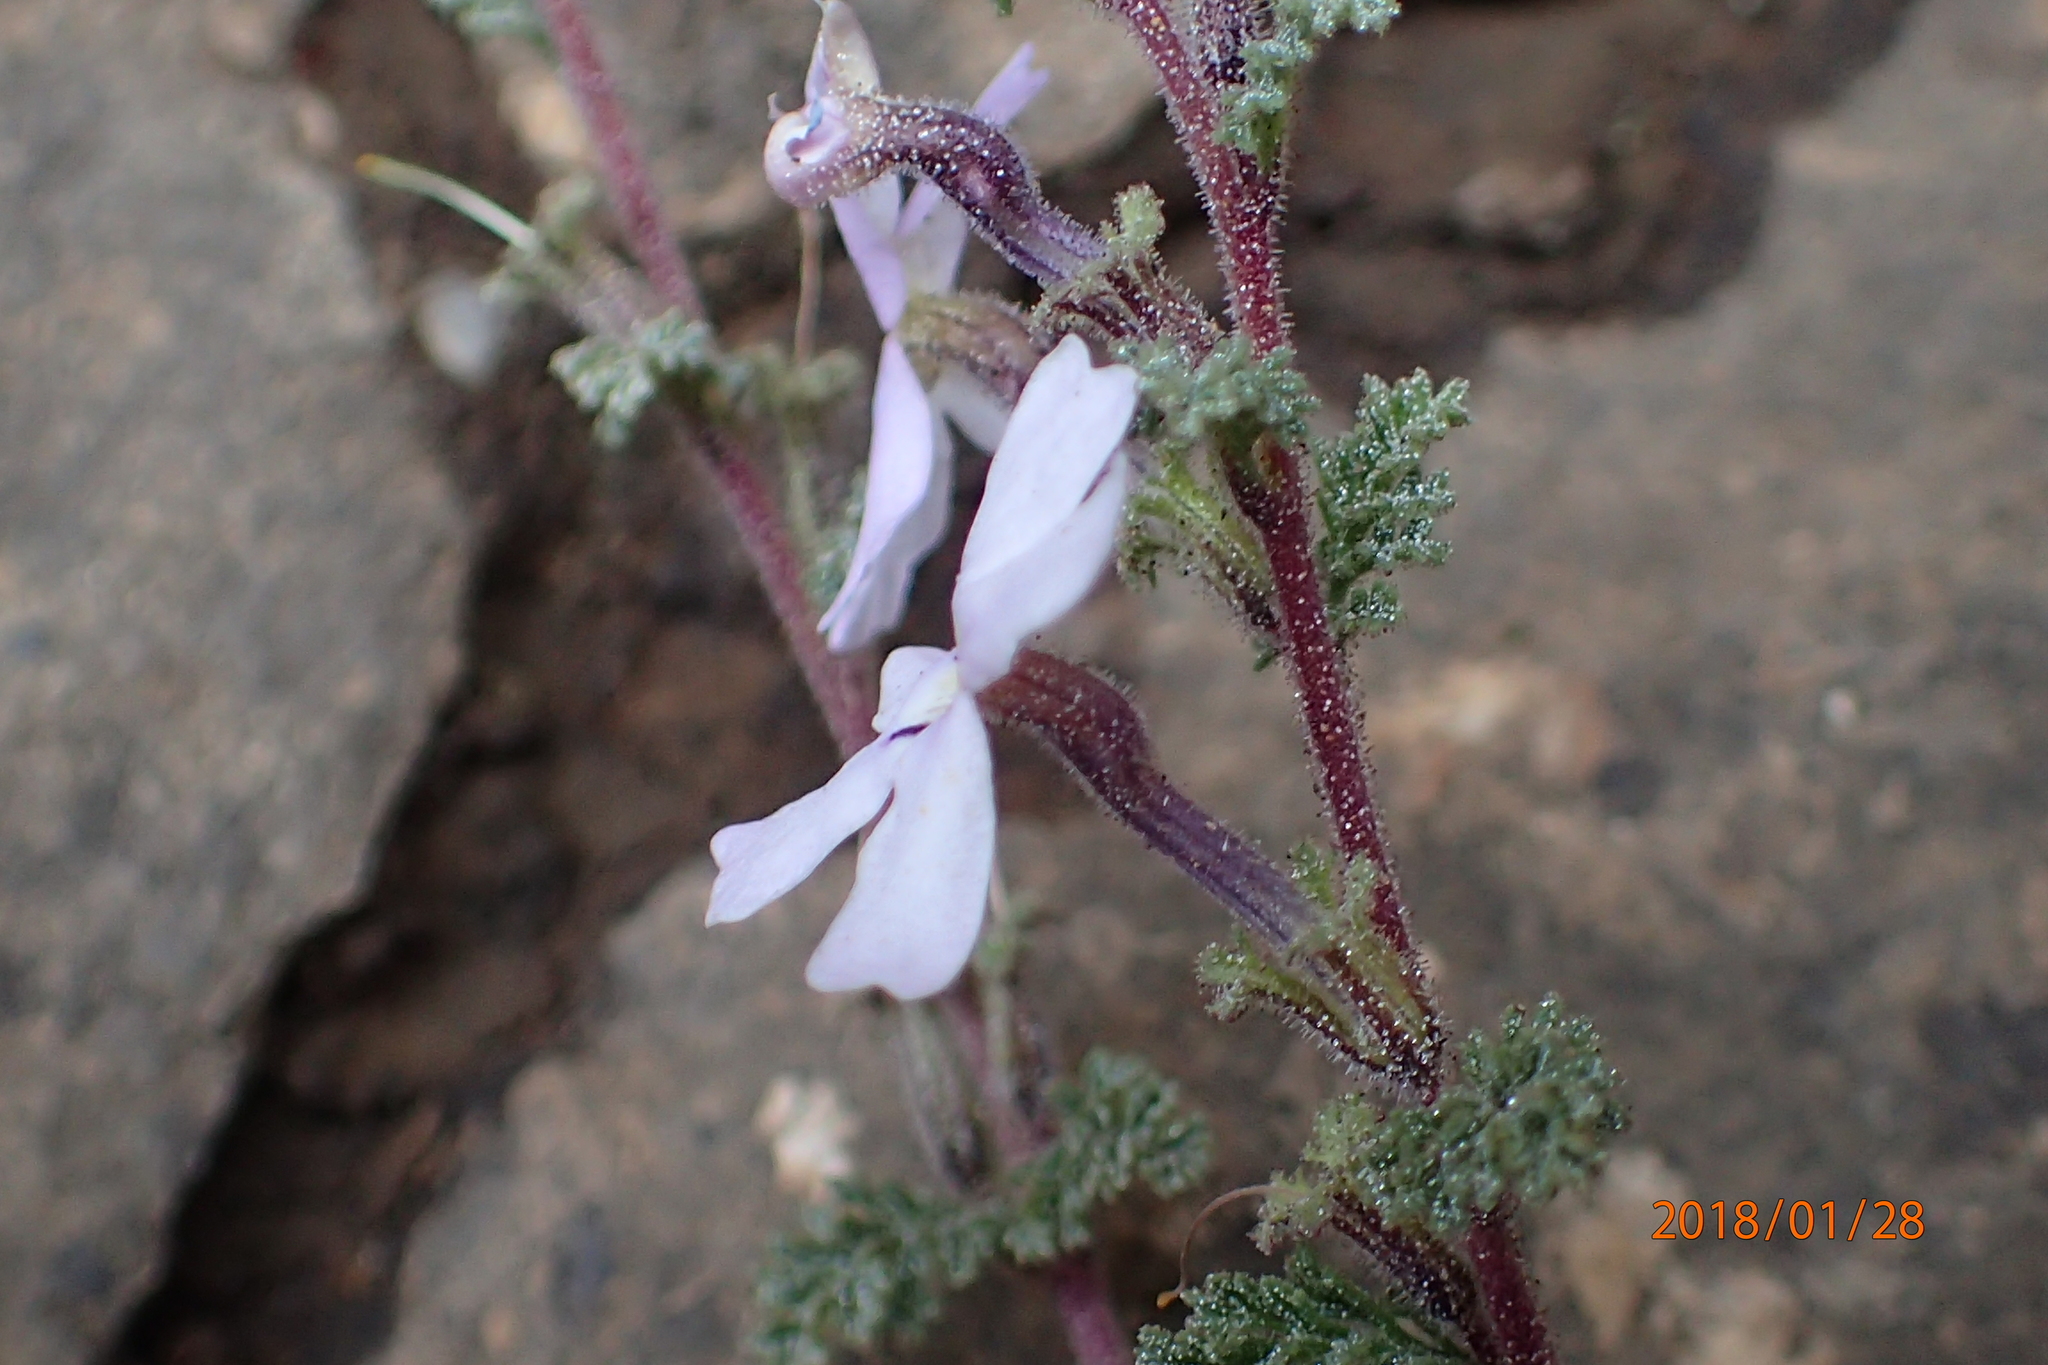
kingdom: Plantae
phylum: Tracheophyta
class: Magnoliopsida
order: Lamiales
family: Scrophulariaceae
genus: Jamesbrittenia
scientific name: Jamesbrittenia pristisepala
